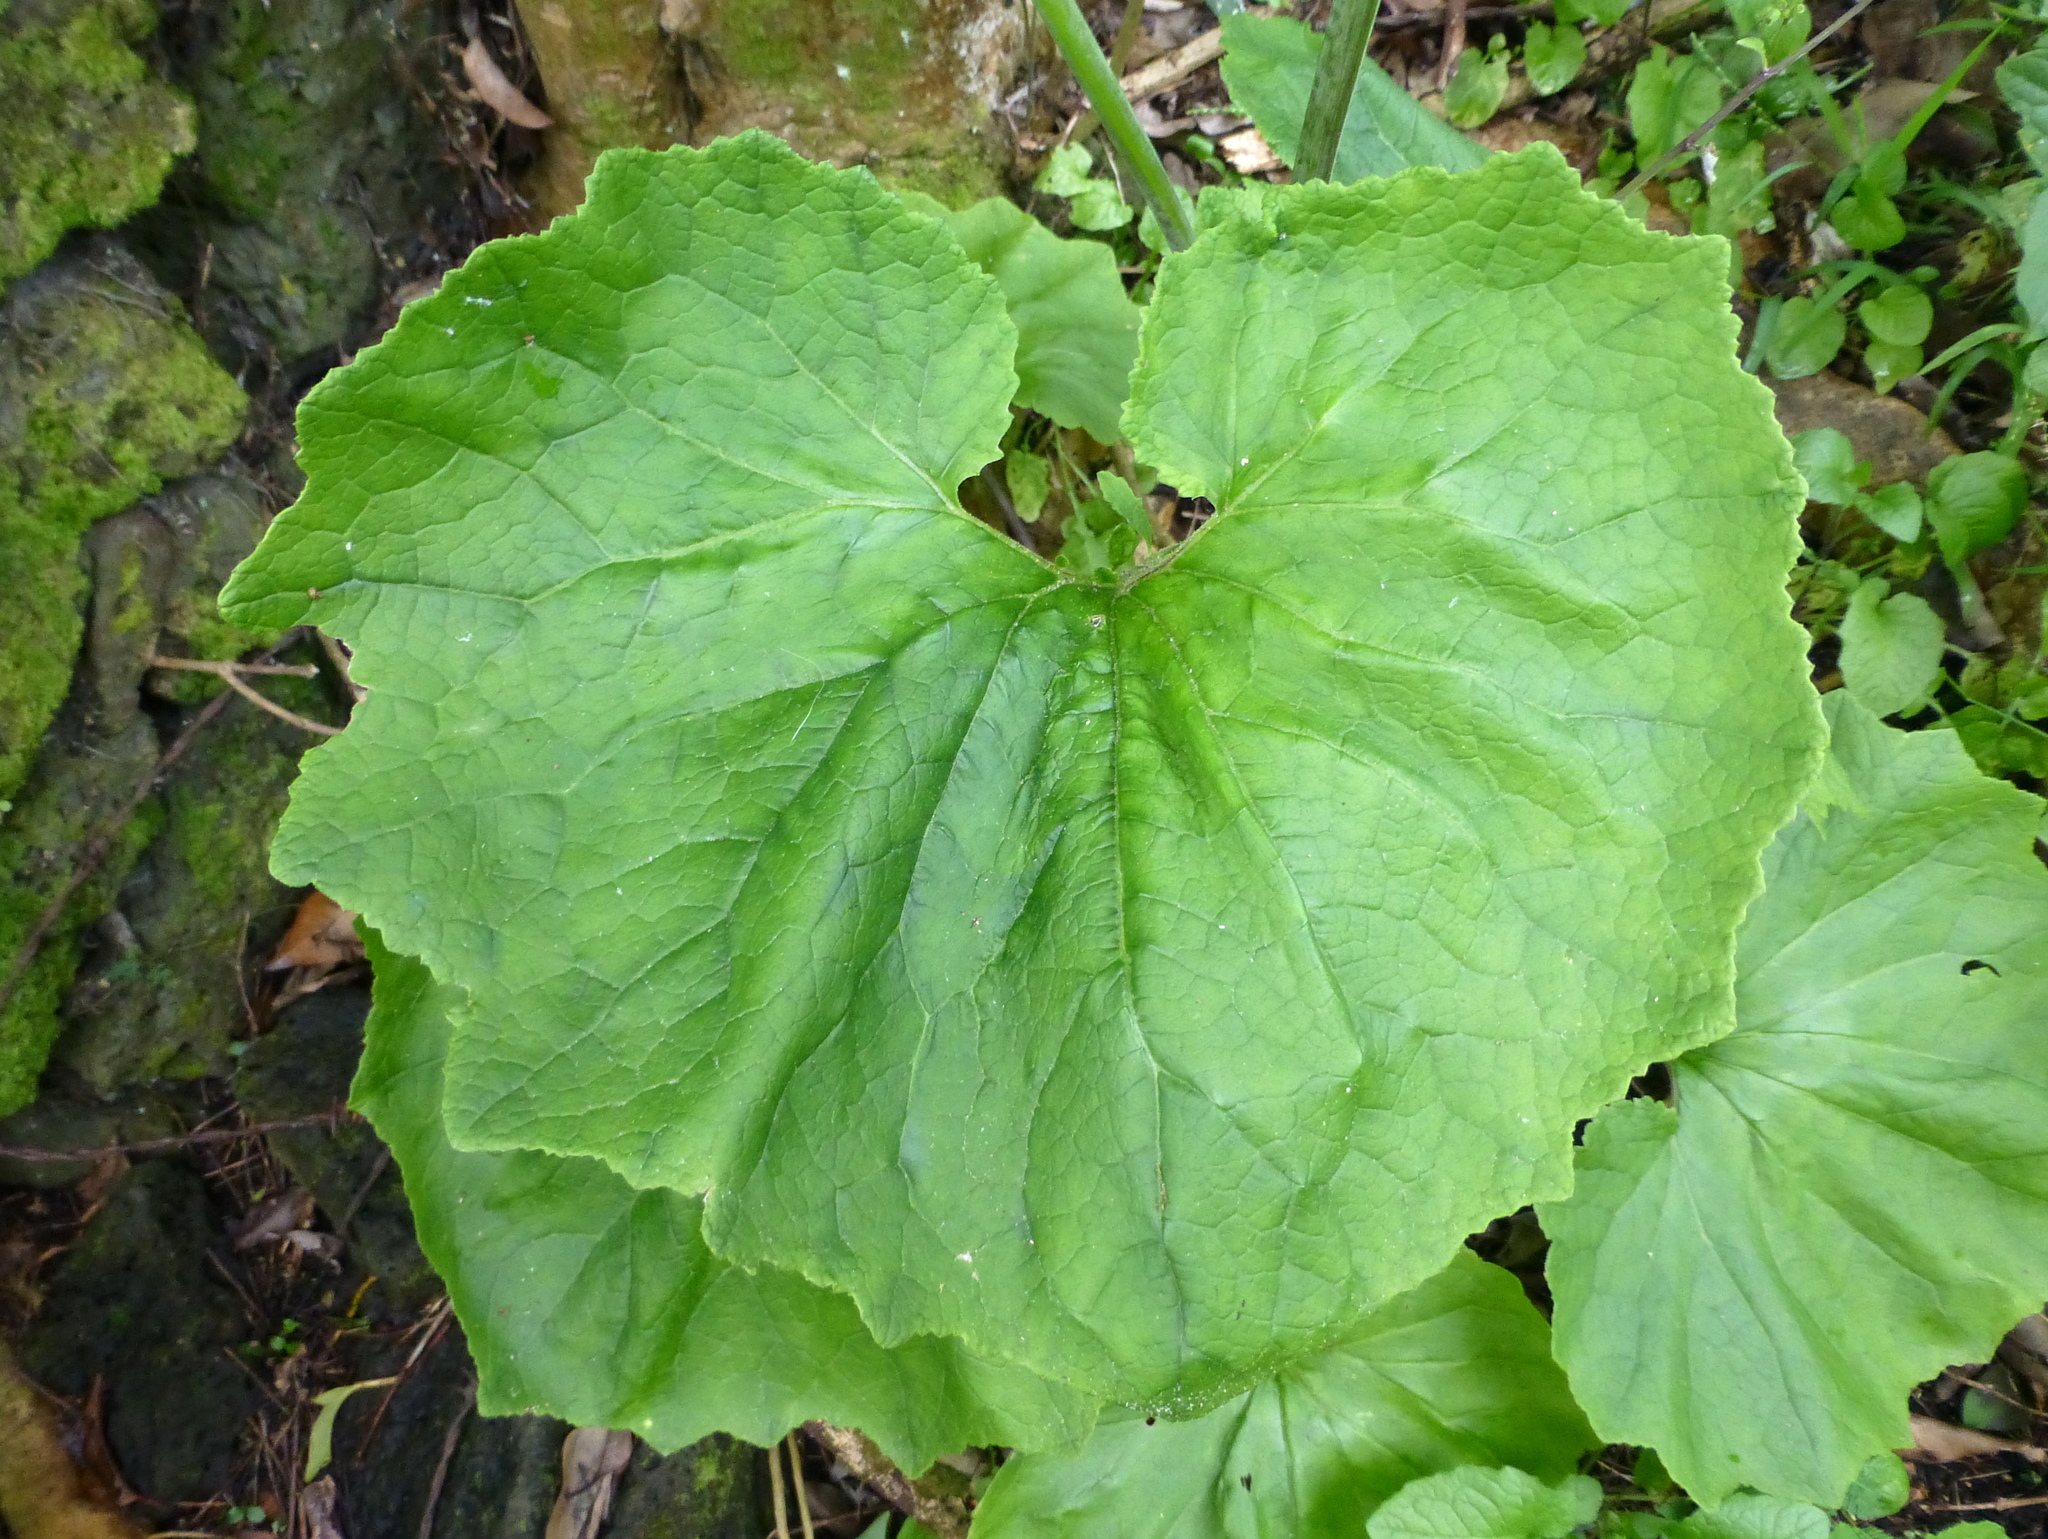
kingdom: Plantae
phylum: Tracheophyta
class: Magnoliopsida
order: Asterales
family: Asteraceae
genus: Pericallis
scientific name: Pericallis hybrida
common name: Cineraria
